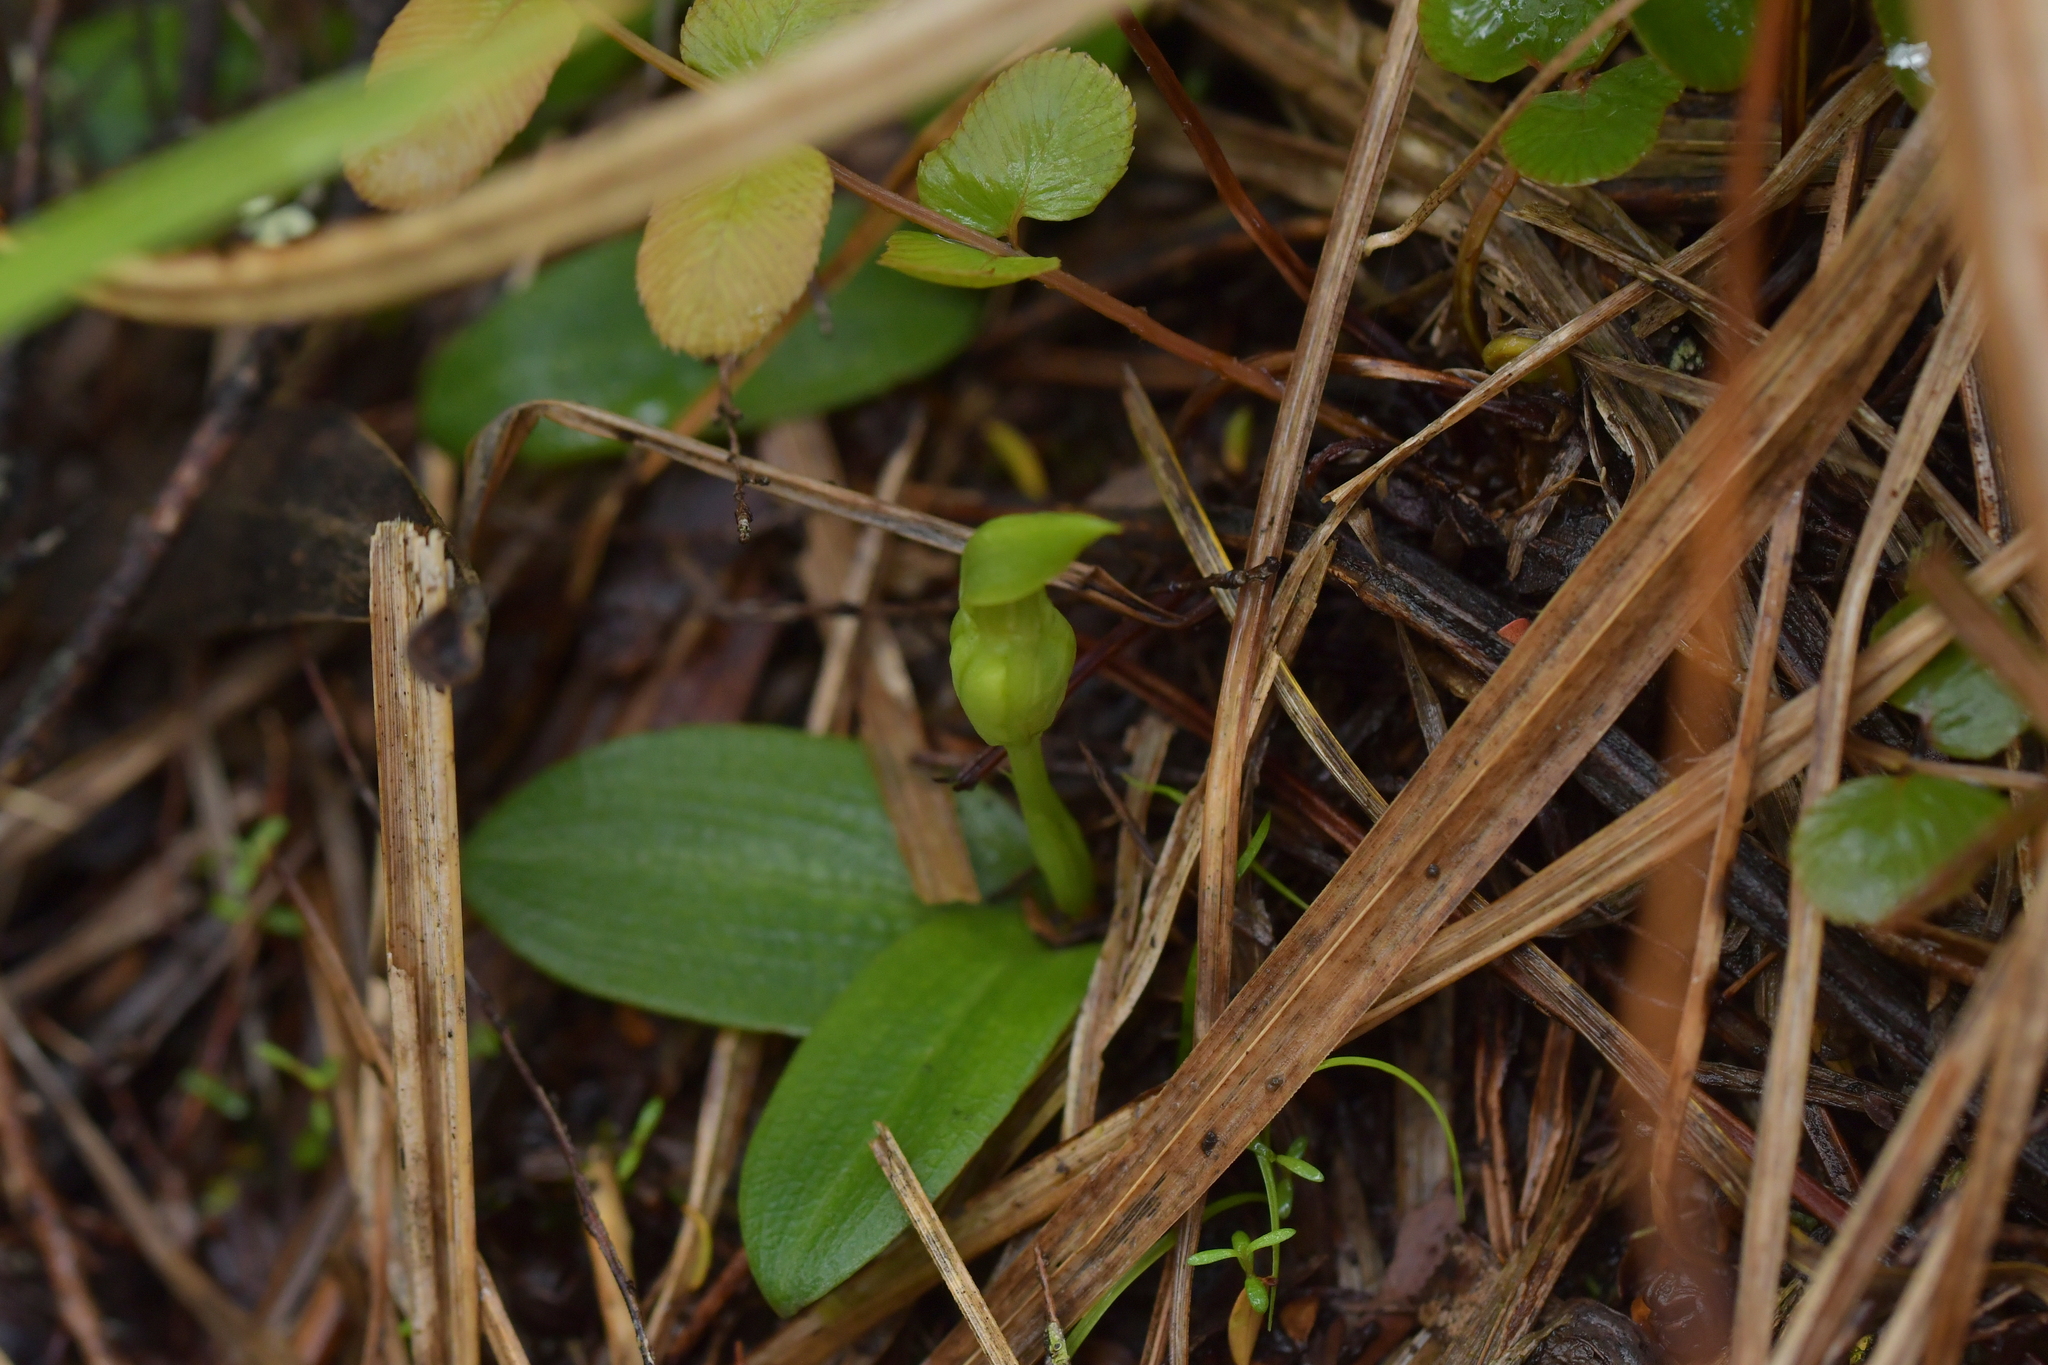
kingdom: Plantae
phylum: Tracheophyta
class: Liliopsida
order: Asparagales
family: Orchidaceae
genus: Chiloglottis
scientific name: Chiloglottis cornuta
